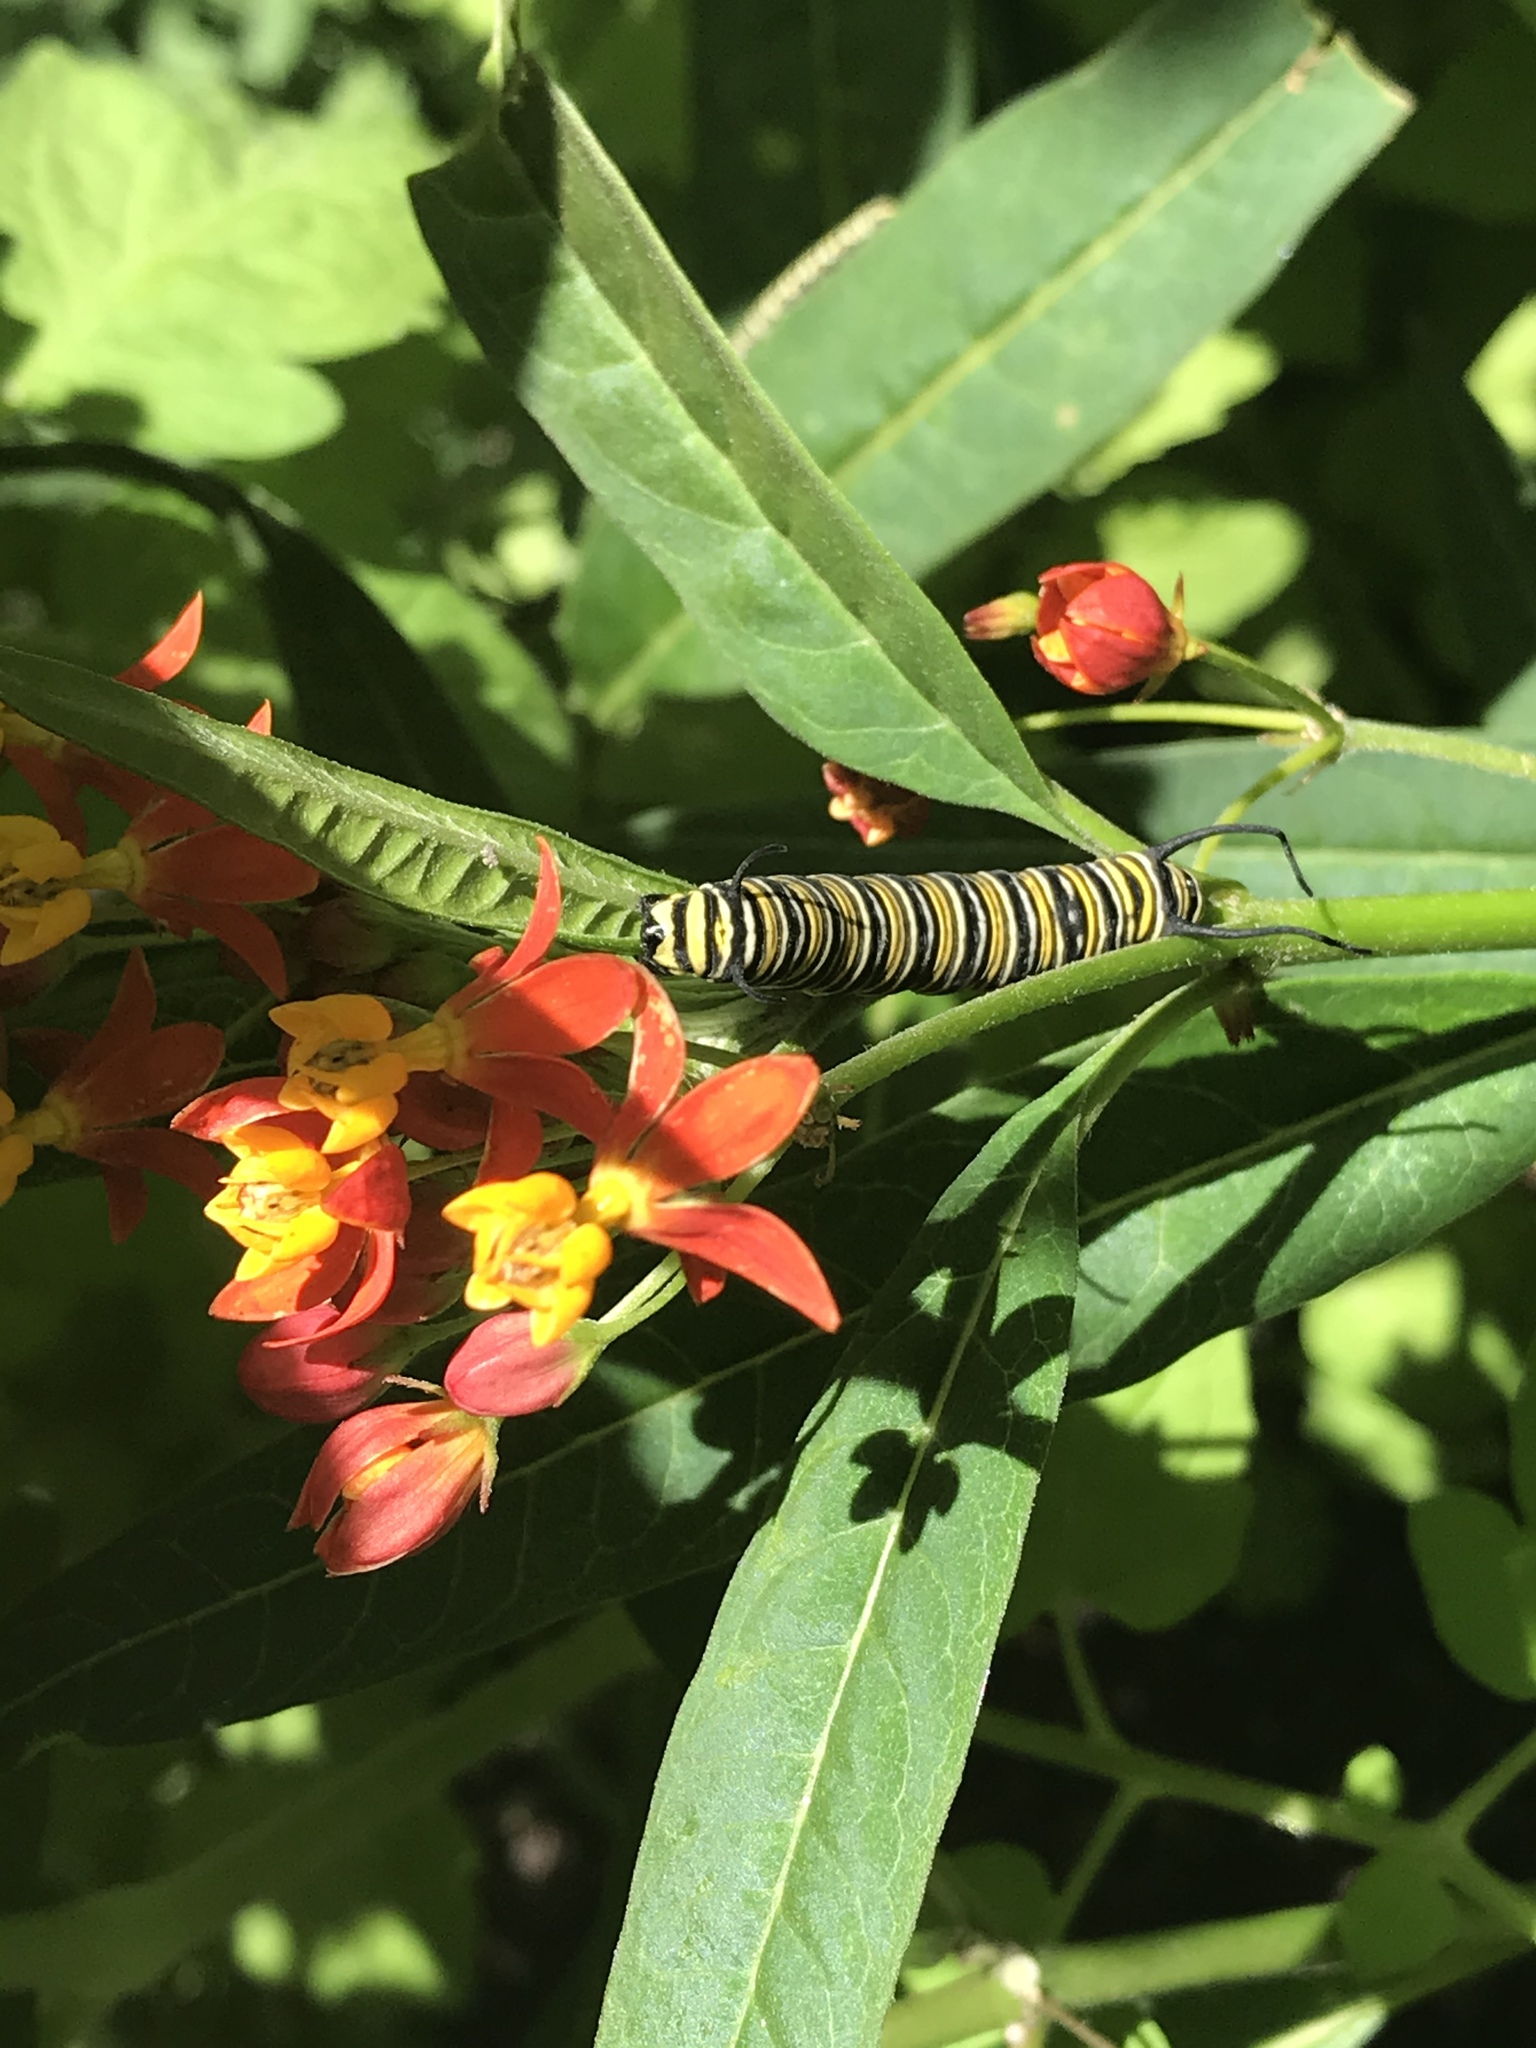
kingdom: Animalia
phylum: Arthropoda
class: Insecta
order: Lepidoptera
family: Nymphalidae
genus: Danaus
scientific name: Danaus plexippus
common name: Monarch
